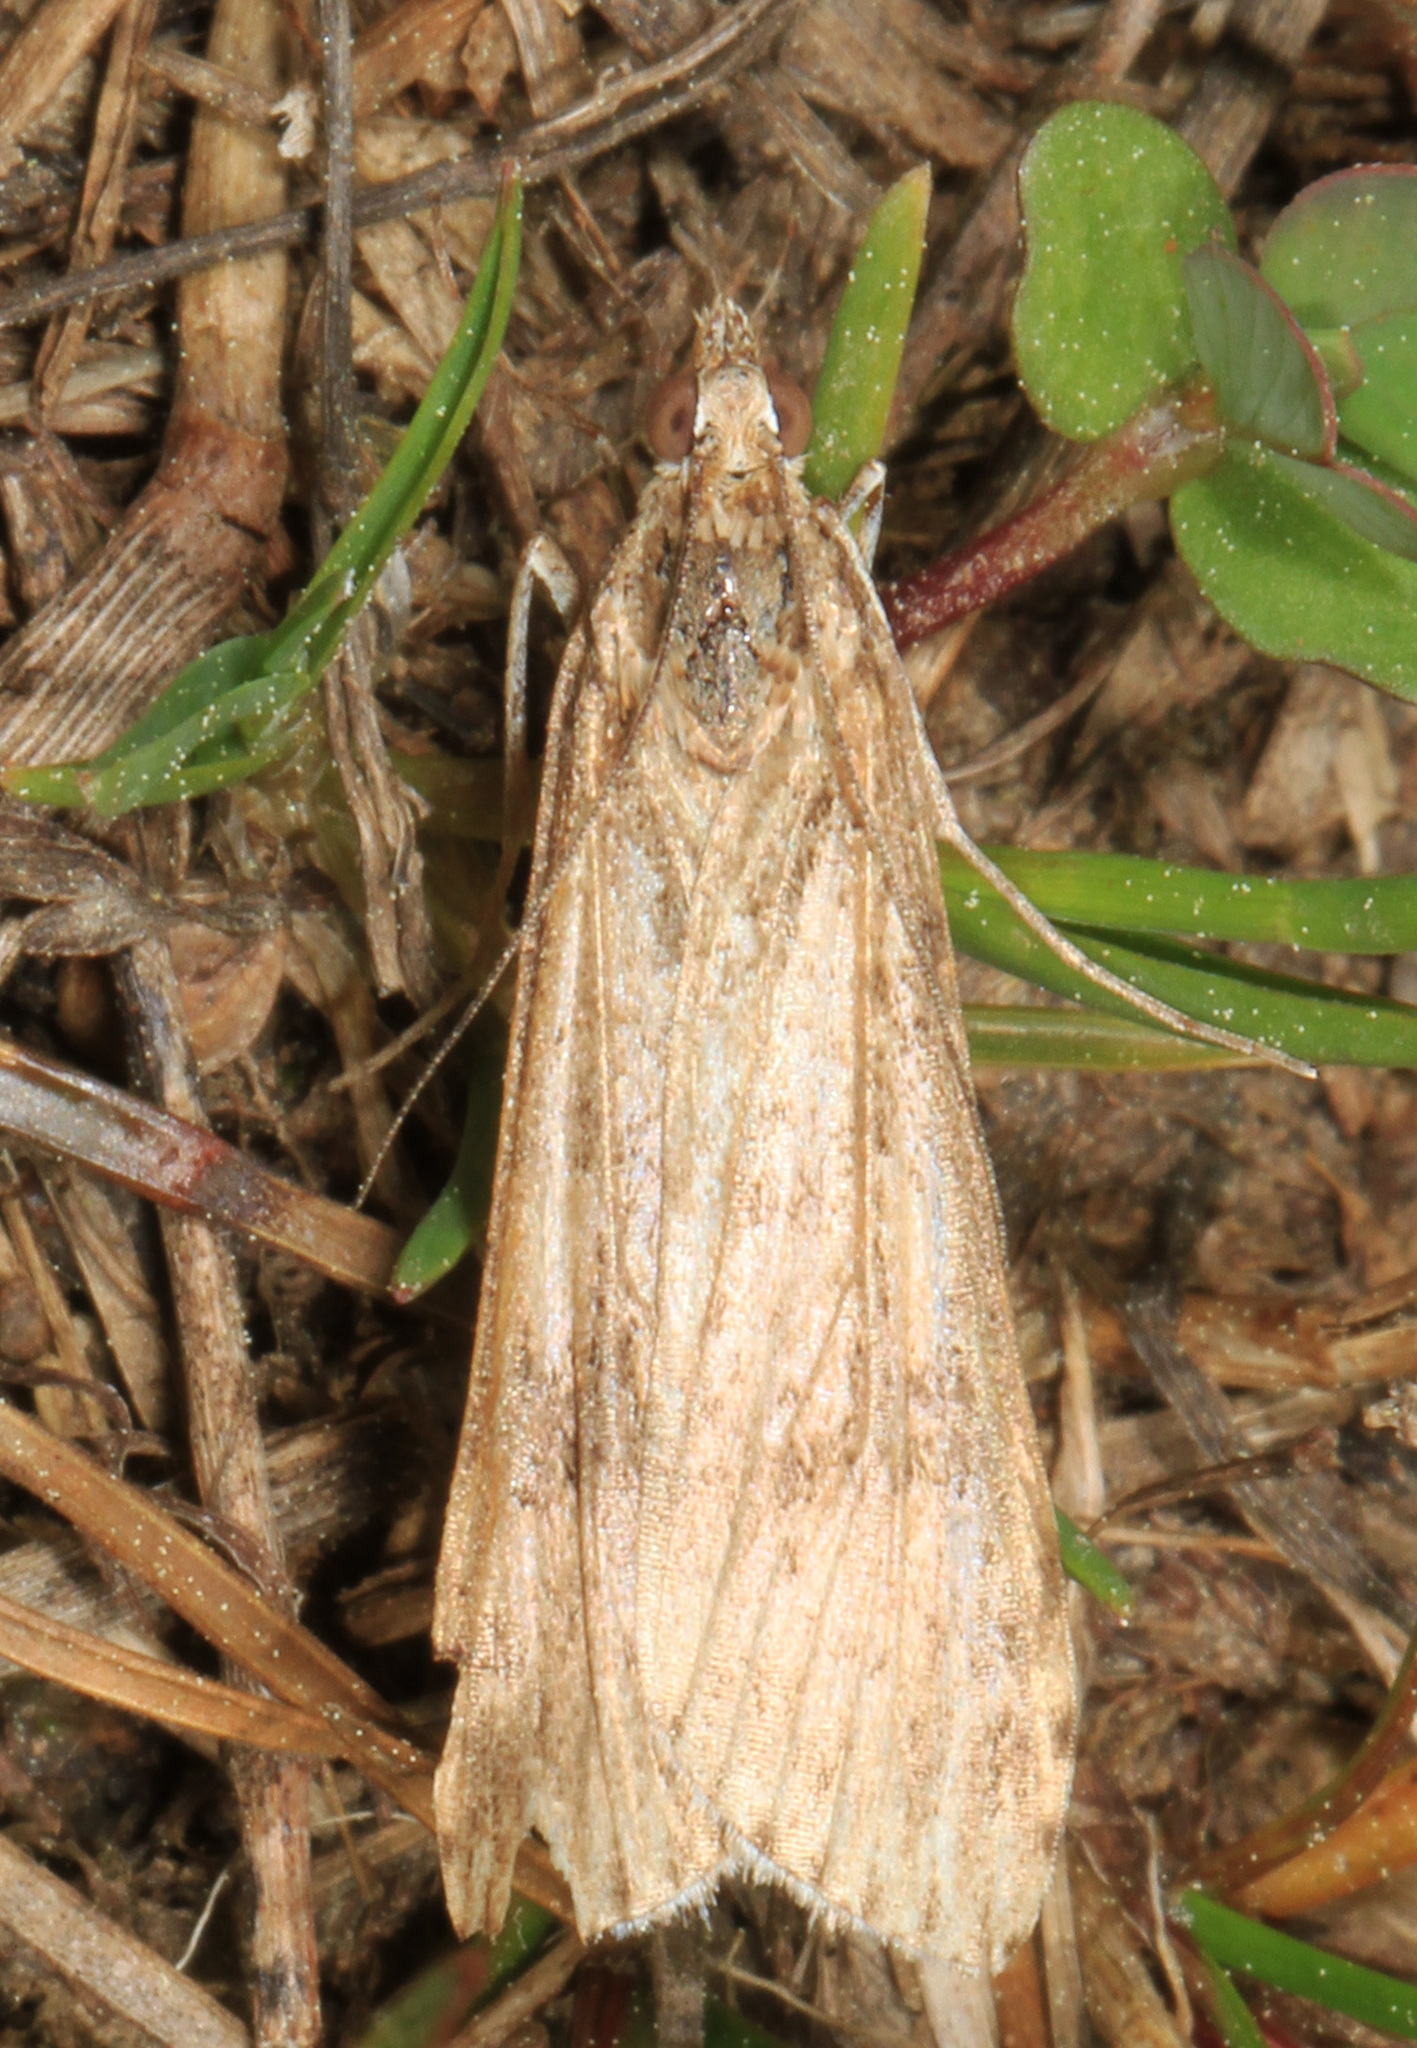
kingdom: Animalia
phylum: Arthropoda
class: Insecta
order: Lepidoptera
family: Crambidae
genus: Nomophila
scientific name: Nomophila nearctica
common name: American rush veneer
